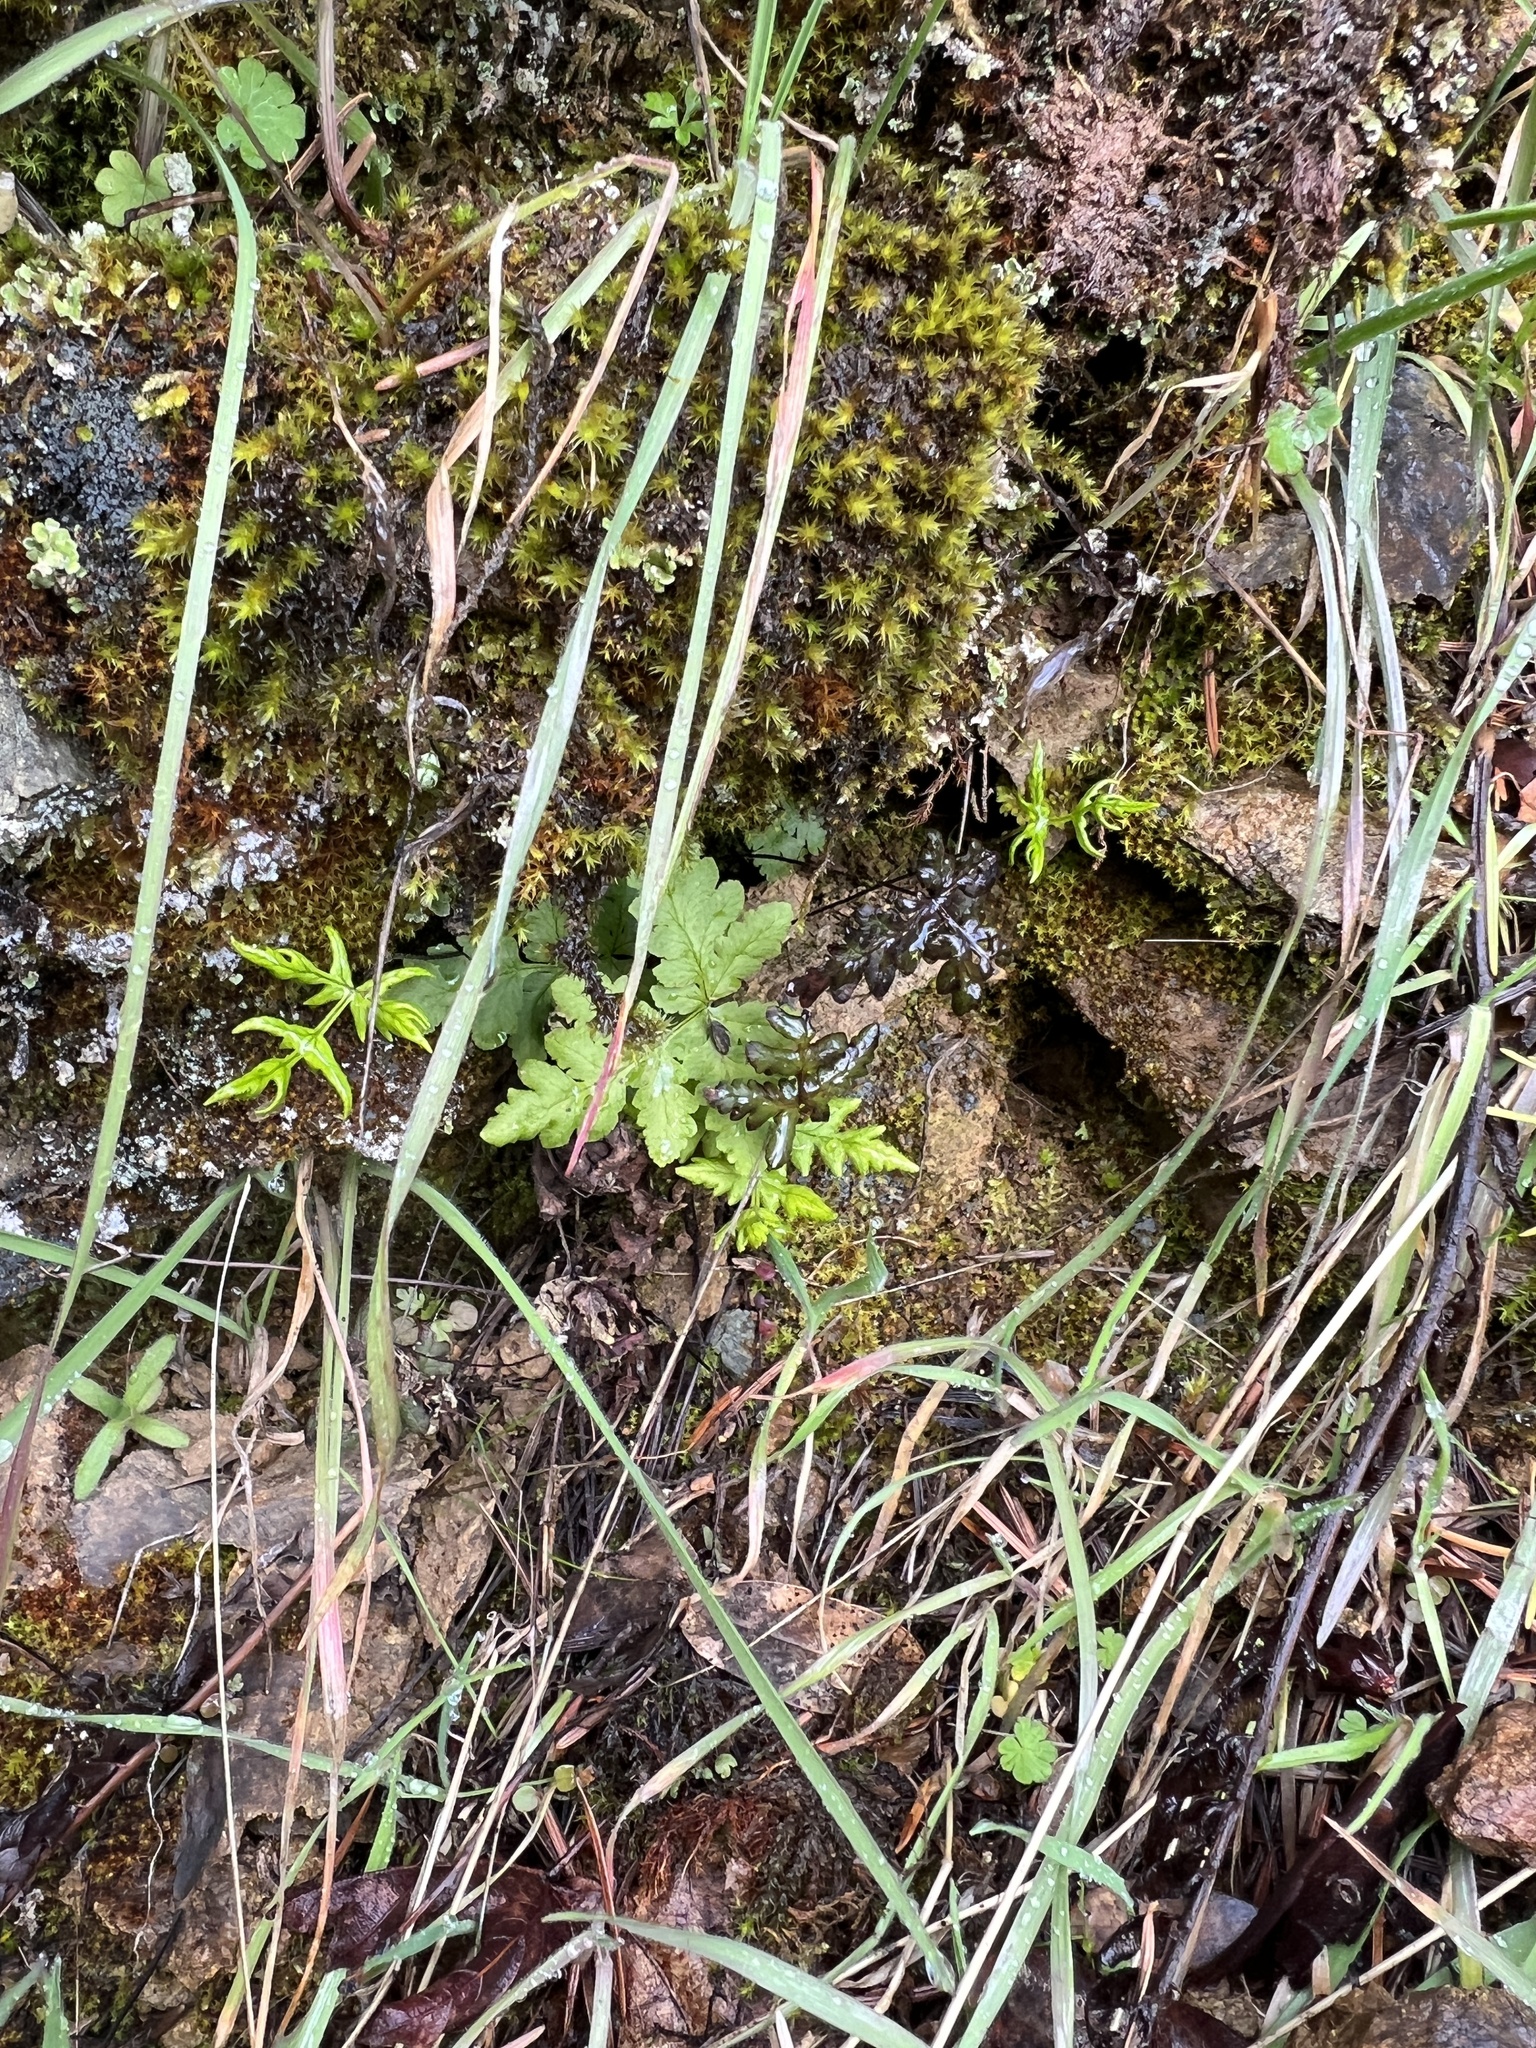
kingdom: Plantae
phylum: Tracheophyta
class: Polypodiopsida
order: Polypodiales
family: Pteridaceae
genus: Pentagramma
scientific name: Pentagramma triangularis
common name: Gold fern
